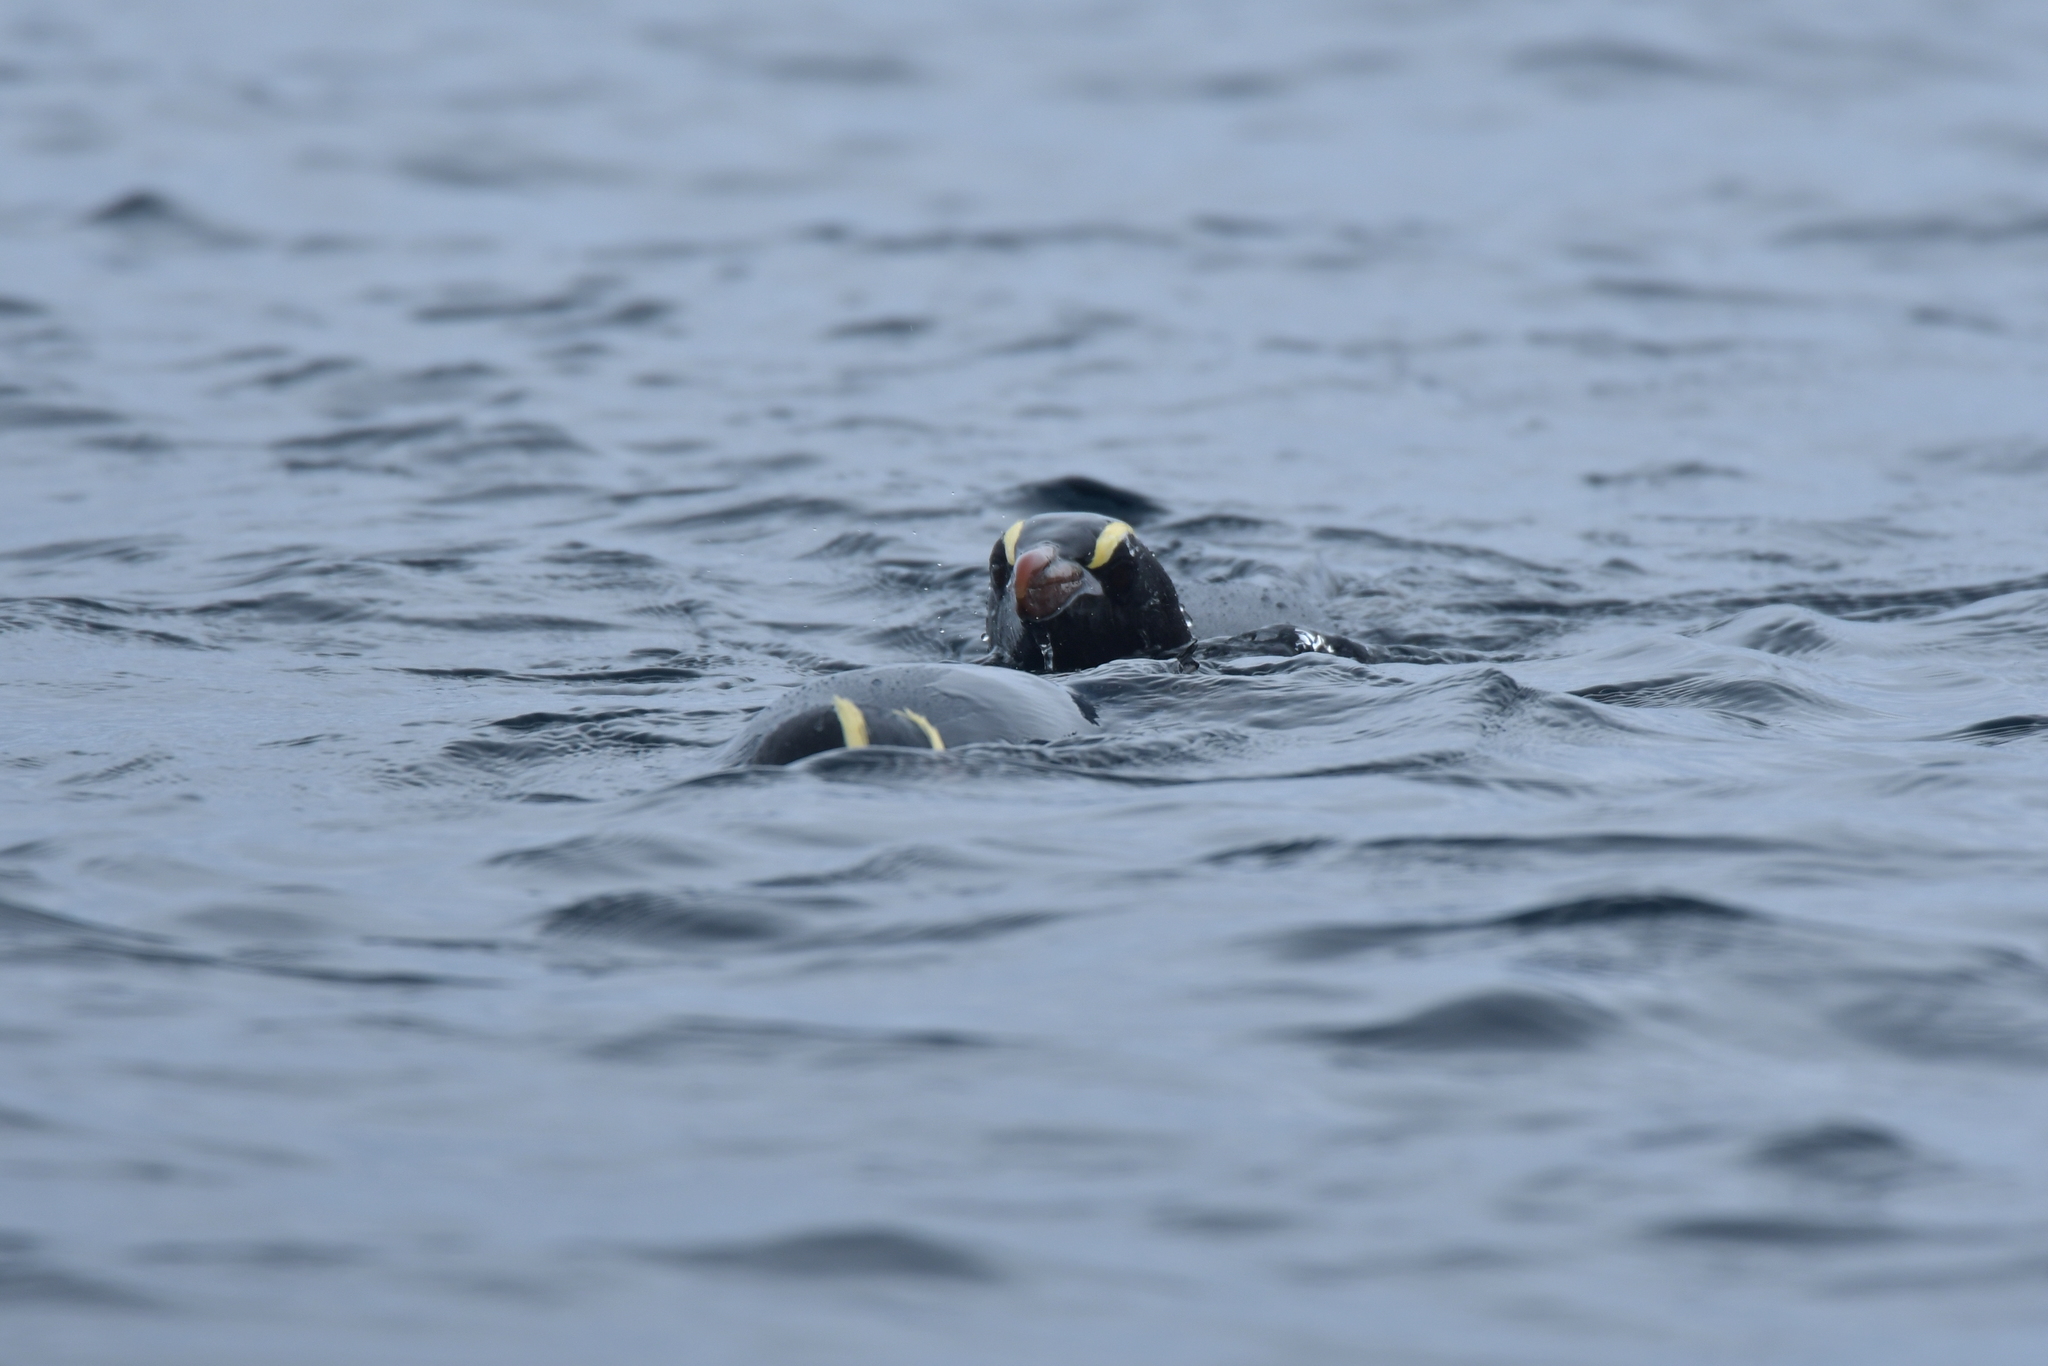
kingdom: Animalia
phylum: Chordata
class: Aves
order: Sphenisciformes
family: Spheniscidae
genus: Eudyptes
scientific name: Eudyptes sclateri
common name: Erect-crested penguin
